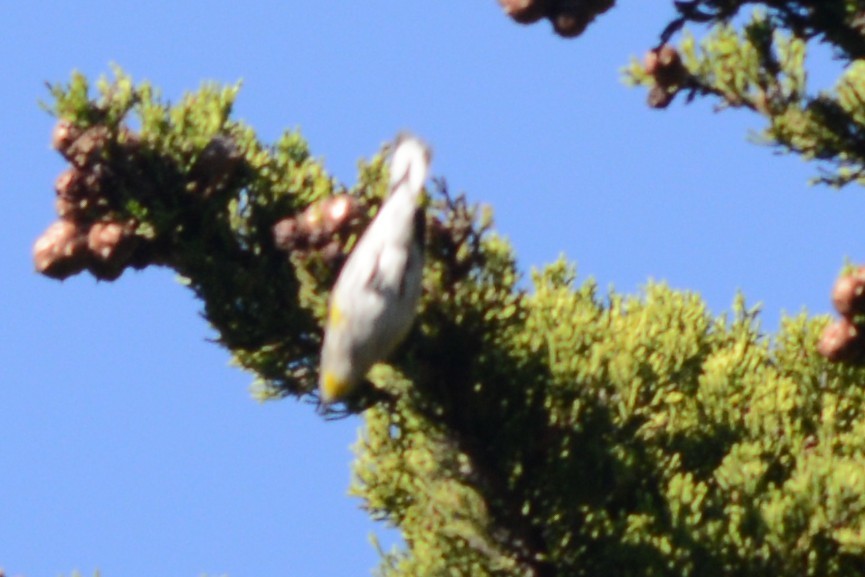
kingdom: Animalia
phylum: Chordata
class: Aves
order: Passeriformes
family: Parulidae
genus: Setophaga
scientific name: Setophaga coronata
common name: Myrtle warbler
